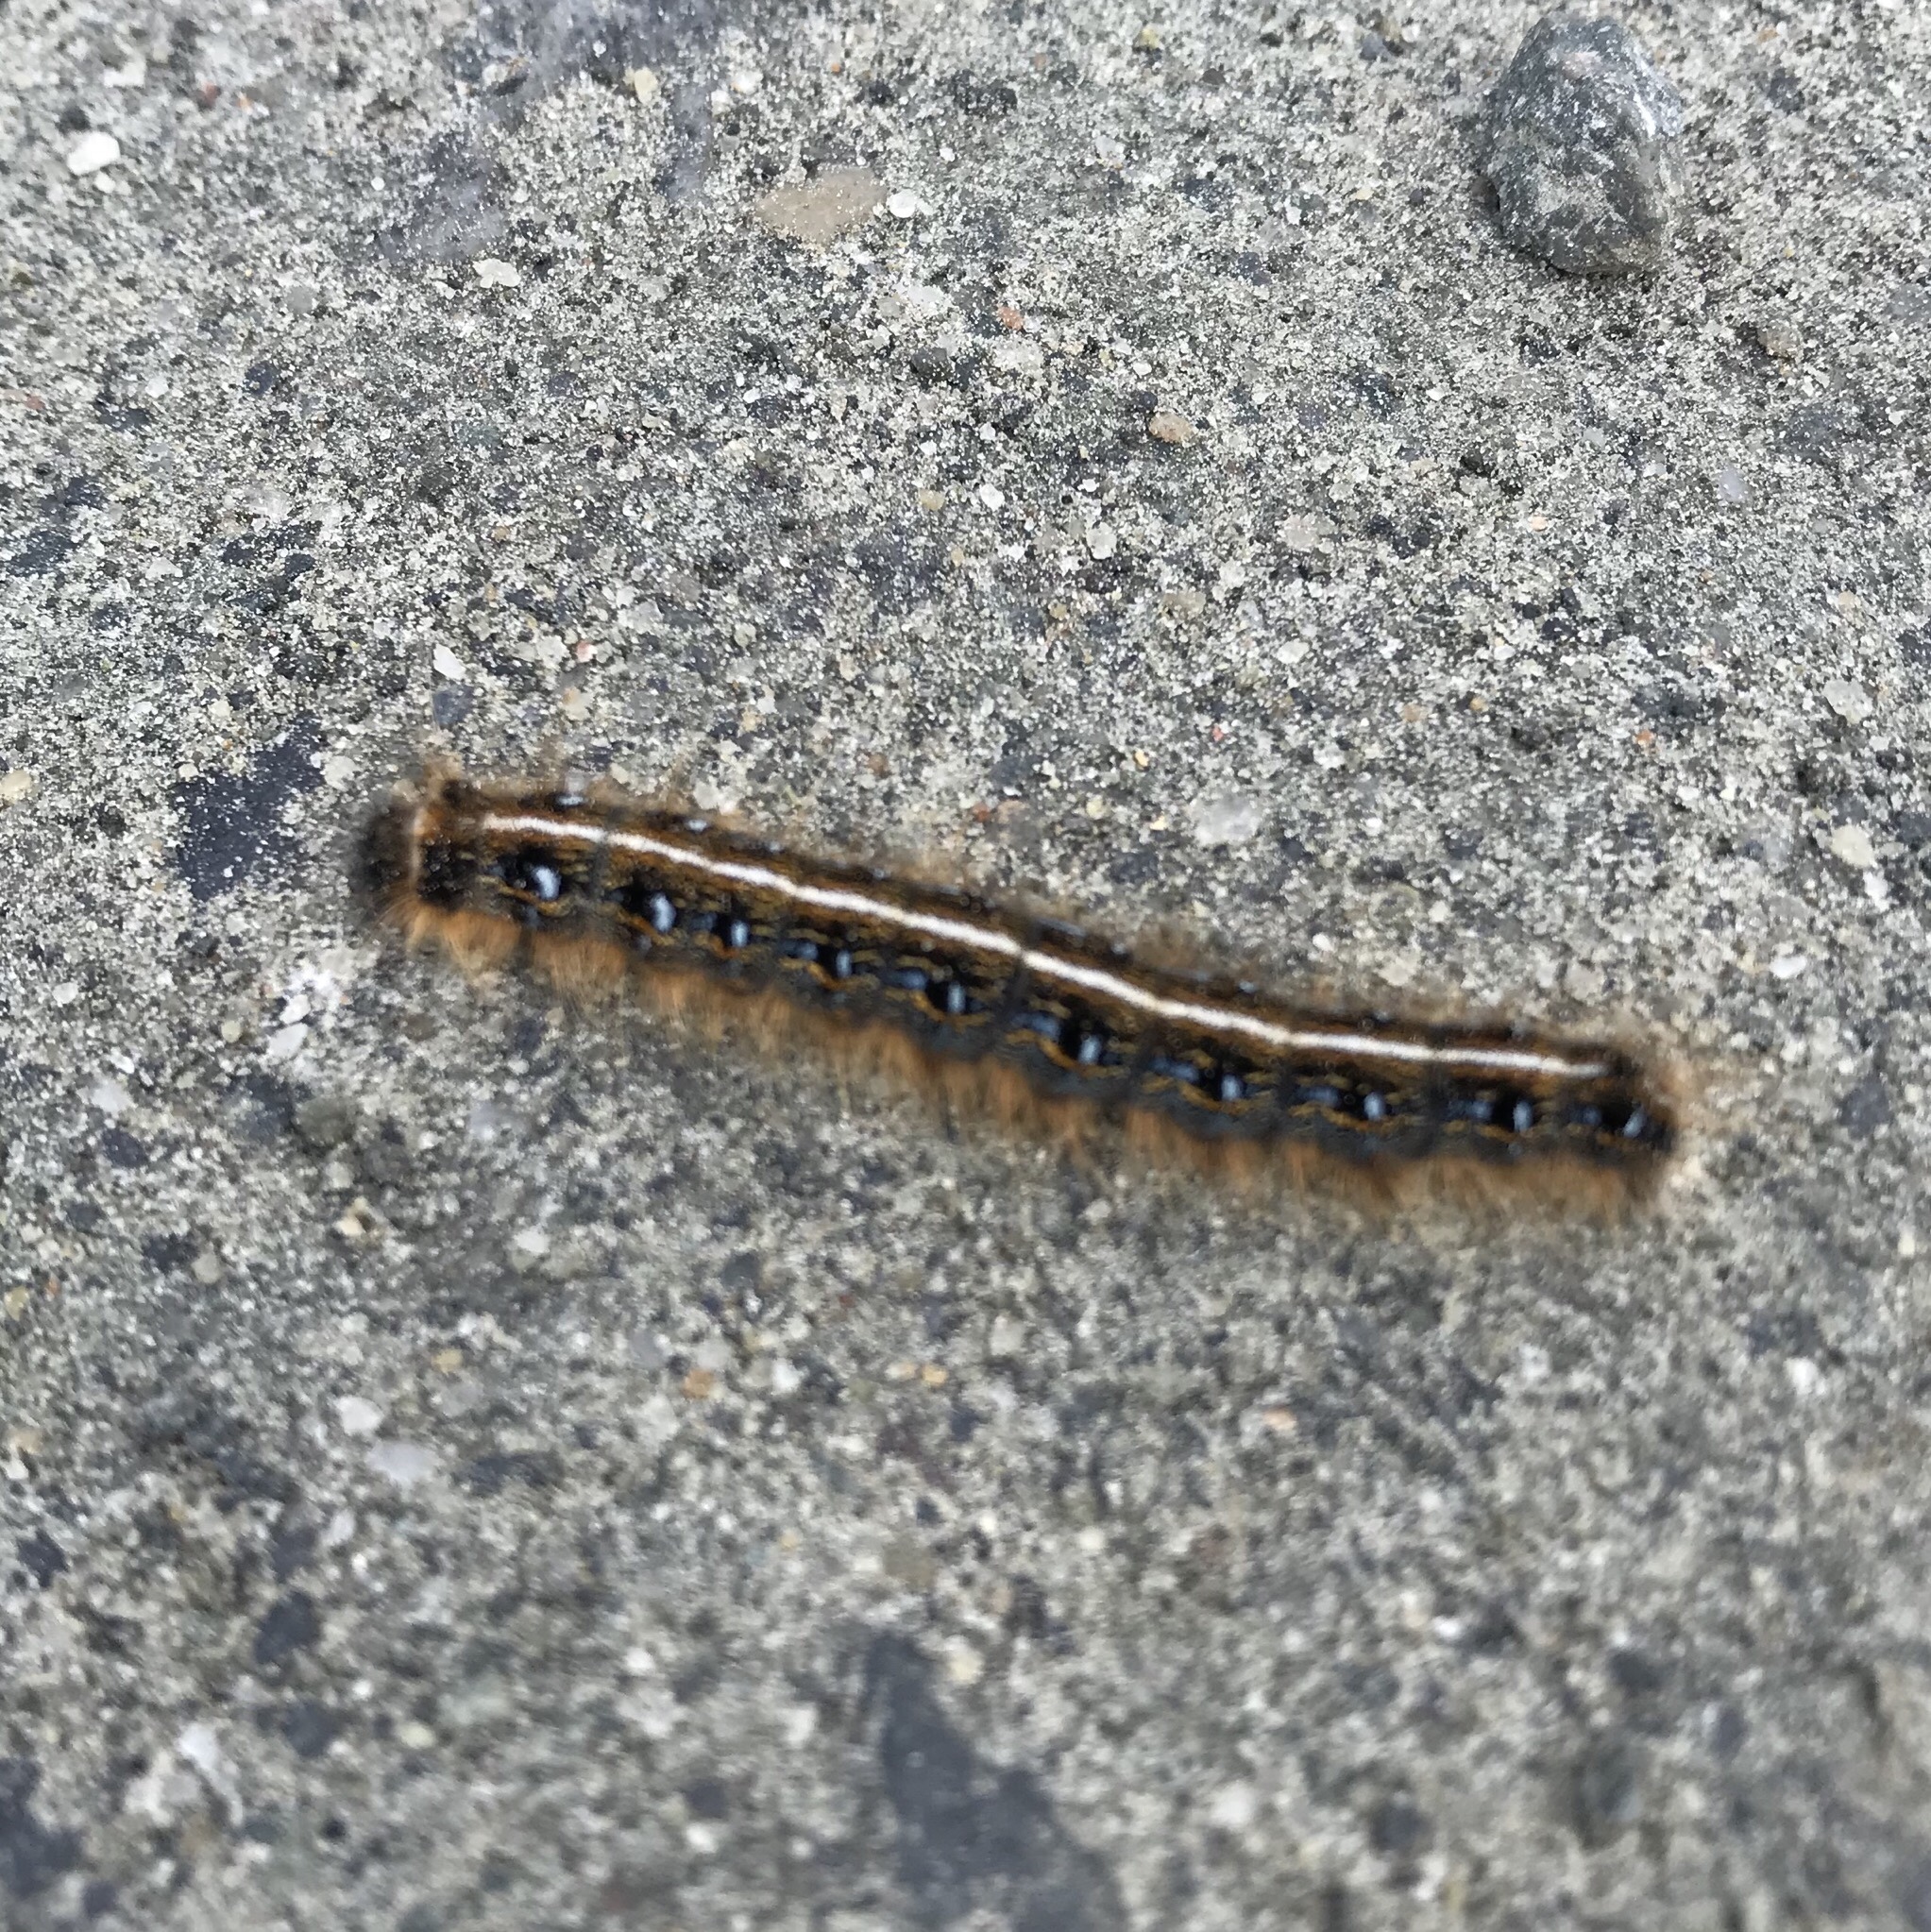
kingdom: Animalia
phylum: Arthropoda
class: Insecta
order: Lepidoptera
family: Lasiocampidae
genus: Malacosoma
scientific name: Malacosoma americana
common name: Eastern tent caterpillar moth
